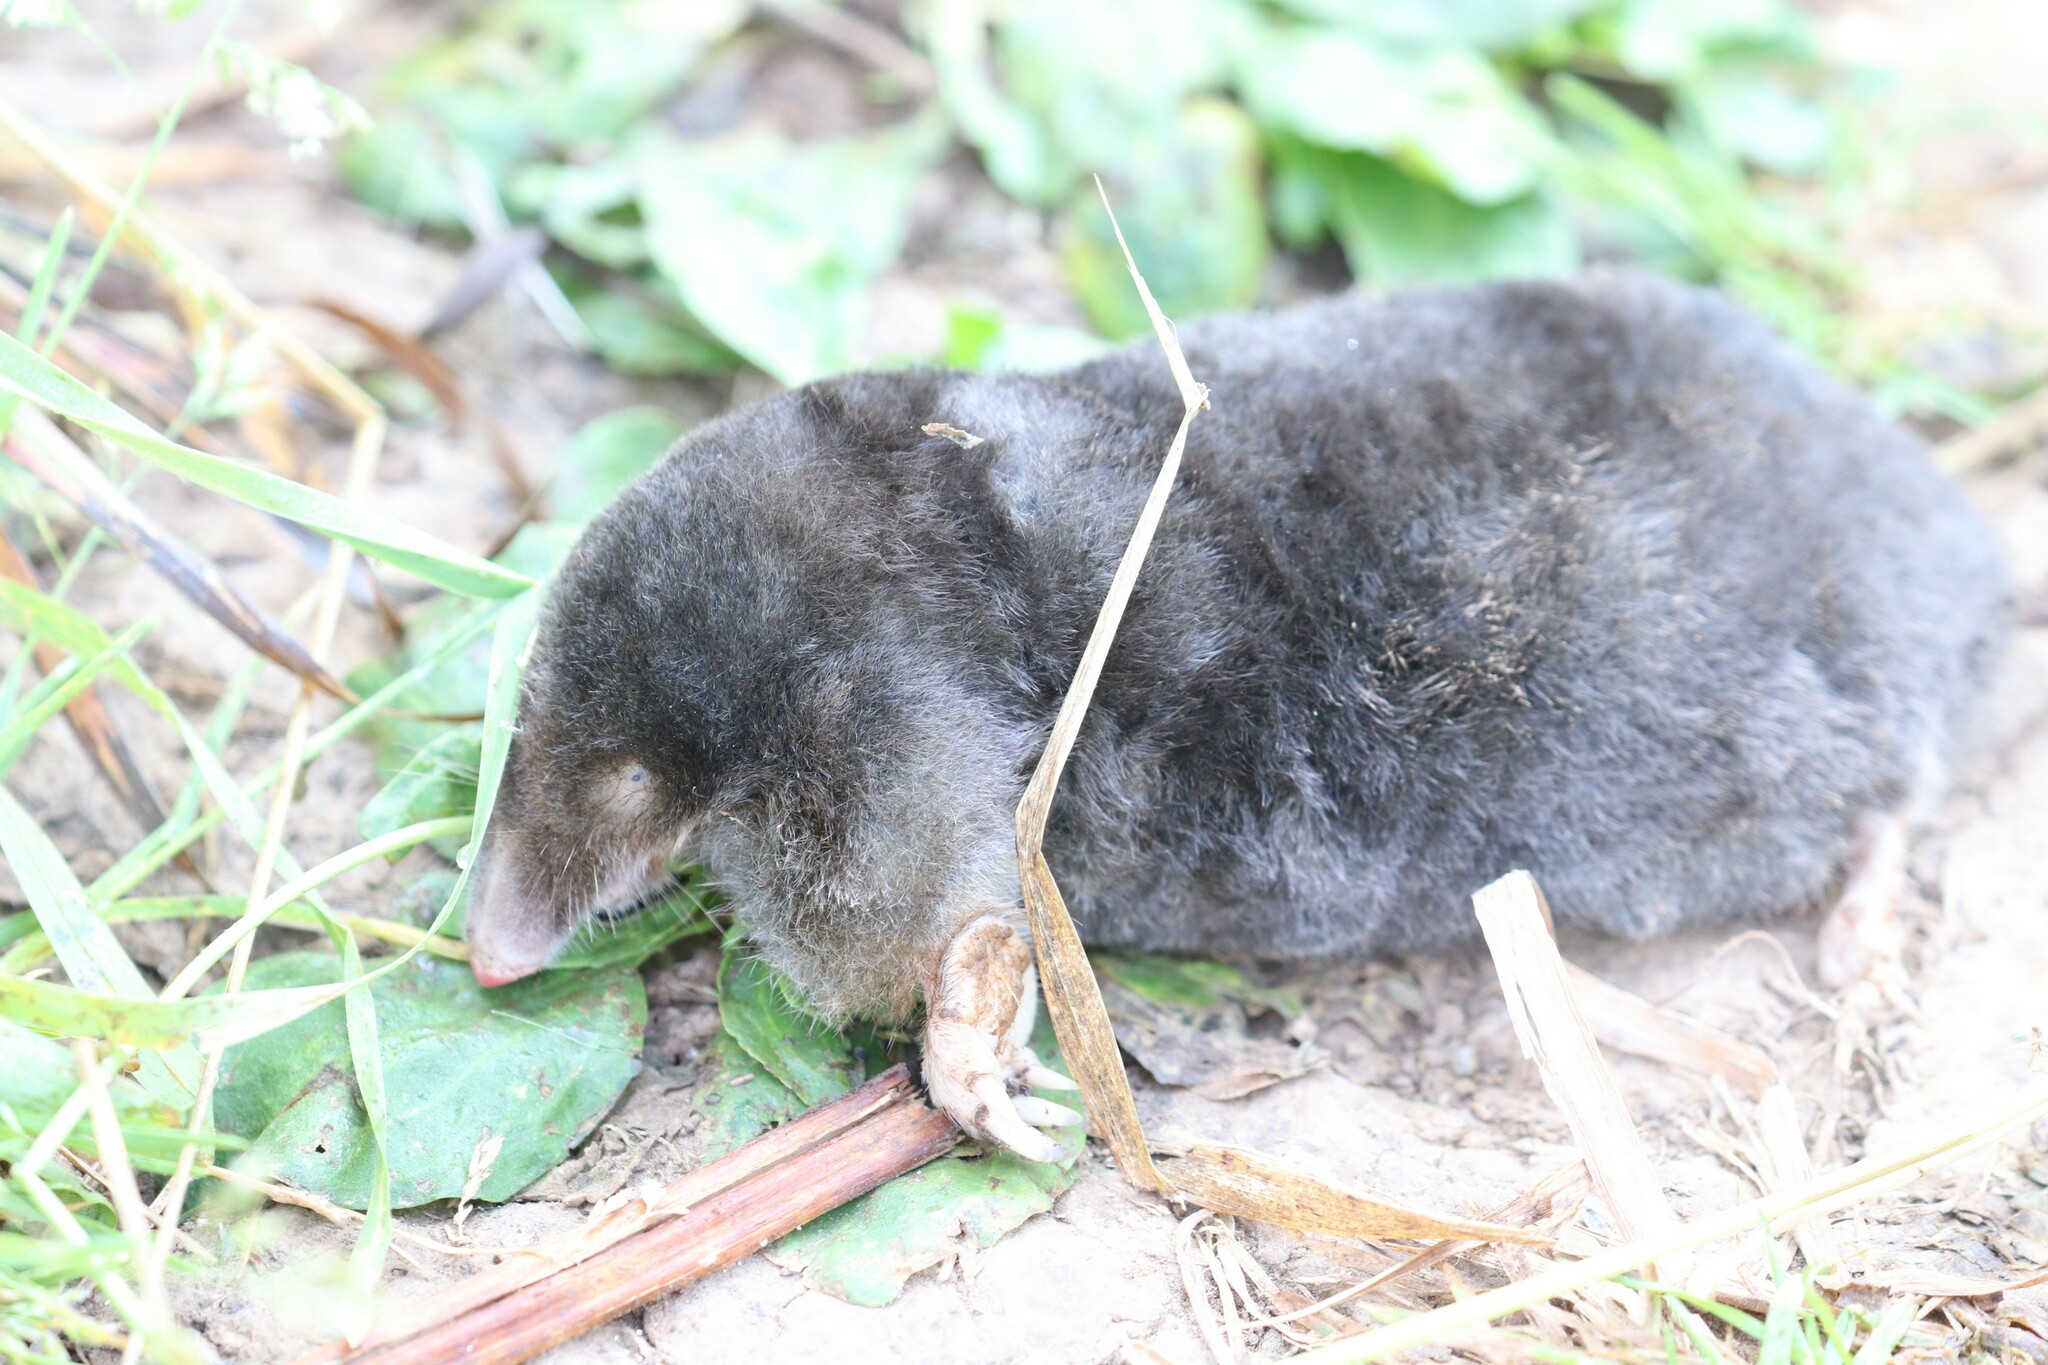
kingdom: Animalia
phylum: Chordata
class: Mammalia
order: Soricomorpha
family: Talpidae
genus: Talpa
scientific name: Talpa europaea
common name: European mole
